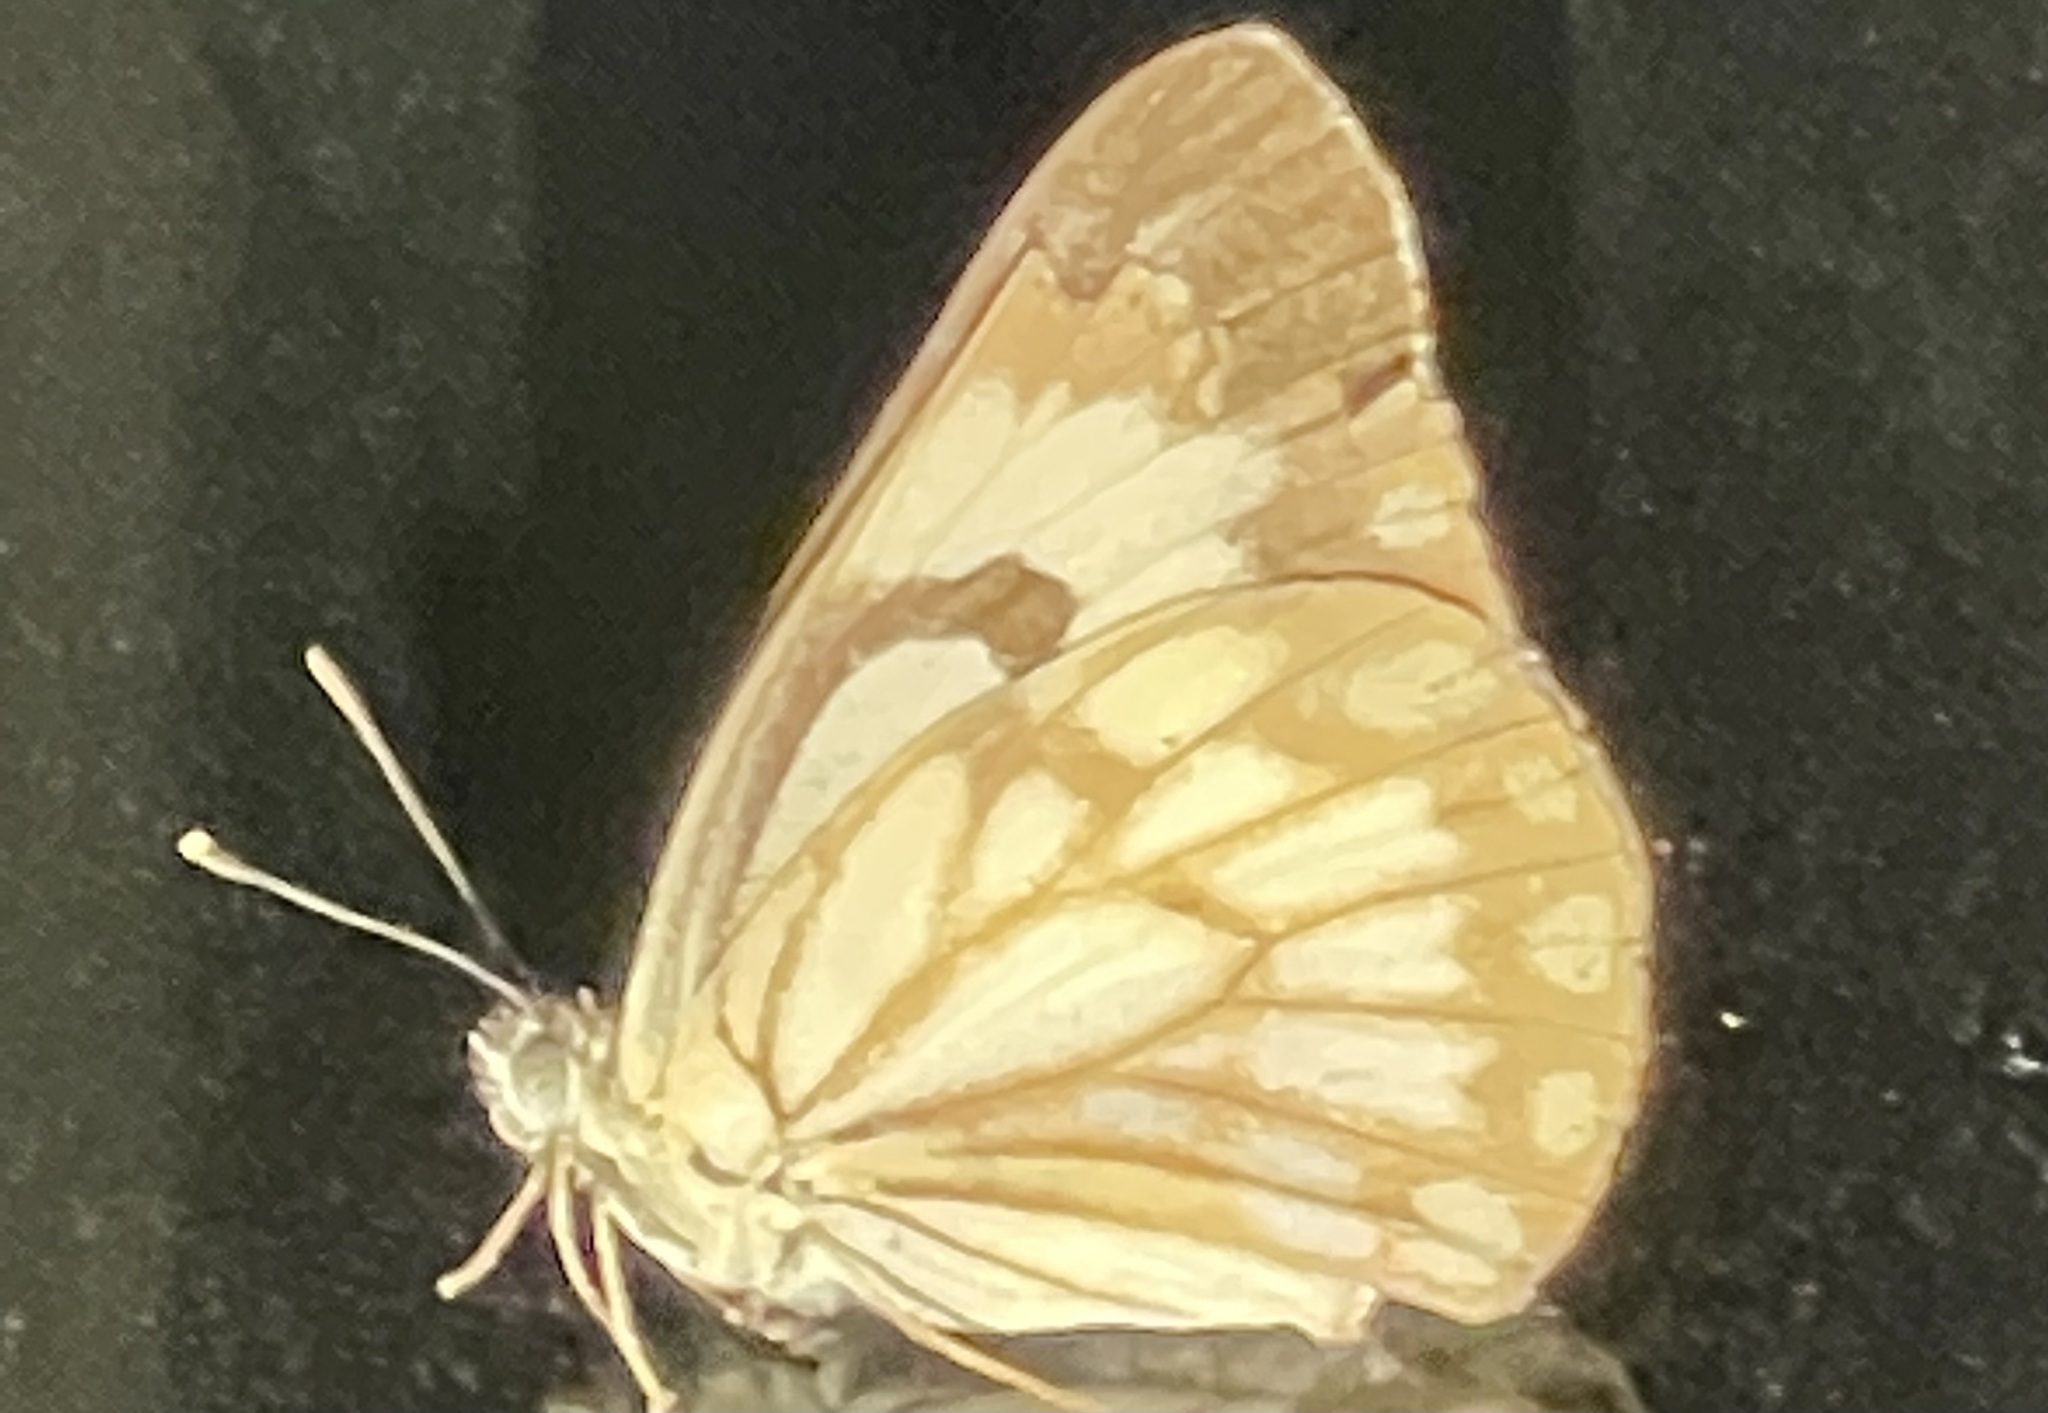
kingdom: Animalia
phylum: Arthropoda
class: Insecta
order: Lepidoptera
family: Pieridae
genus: Belenois
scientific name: Belenois aurota
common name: Brown-veined white
